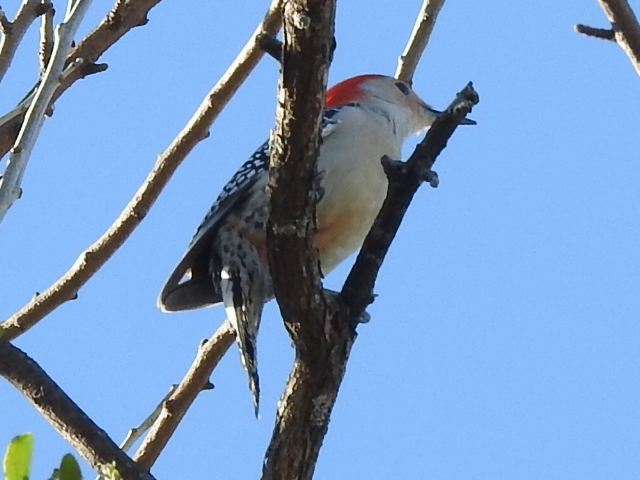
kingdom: Animalia
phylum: Chordata
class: Aves
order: Piciformes
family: Picidae
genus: Melanerpes
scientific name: Melanerpes carolinus
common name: Red-bellied woodpecker
